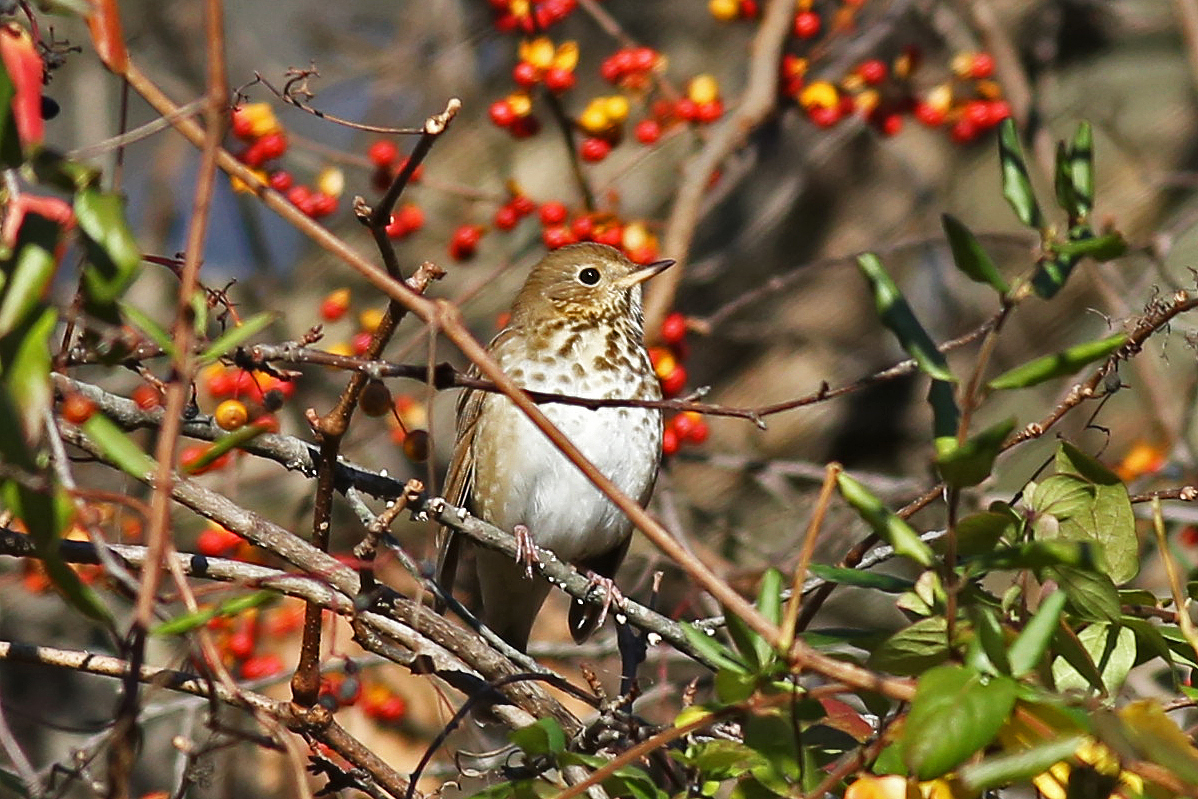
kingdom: Animalia
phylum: Chordata
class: Aves
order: Passeriformes
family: Turdidae
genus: Catharus
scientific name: Catharus guttatus
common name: Hermit thrush
